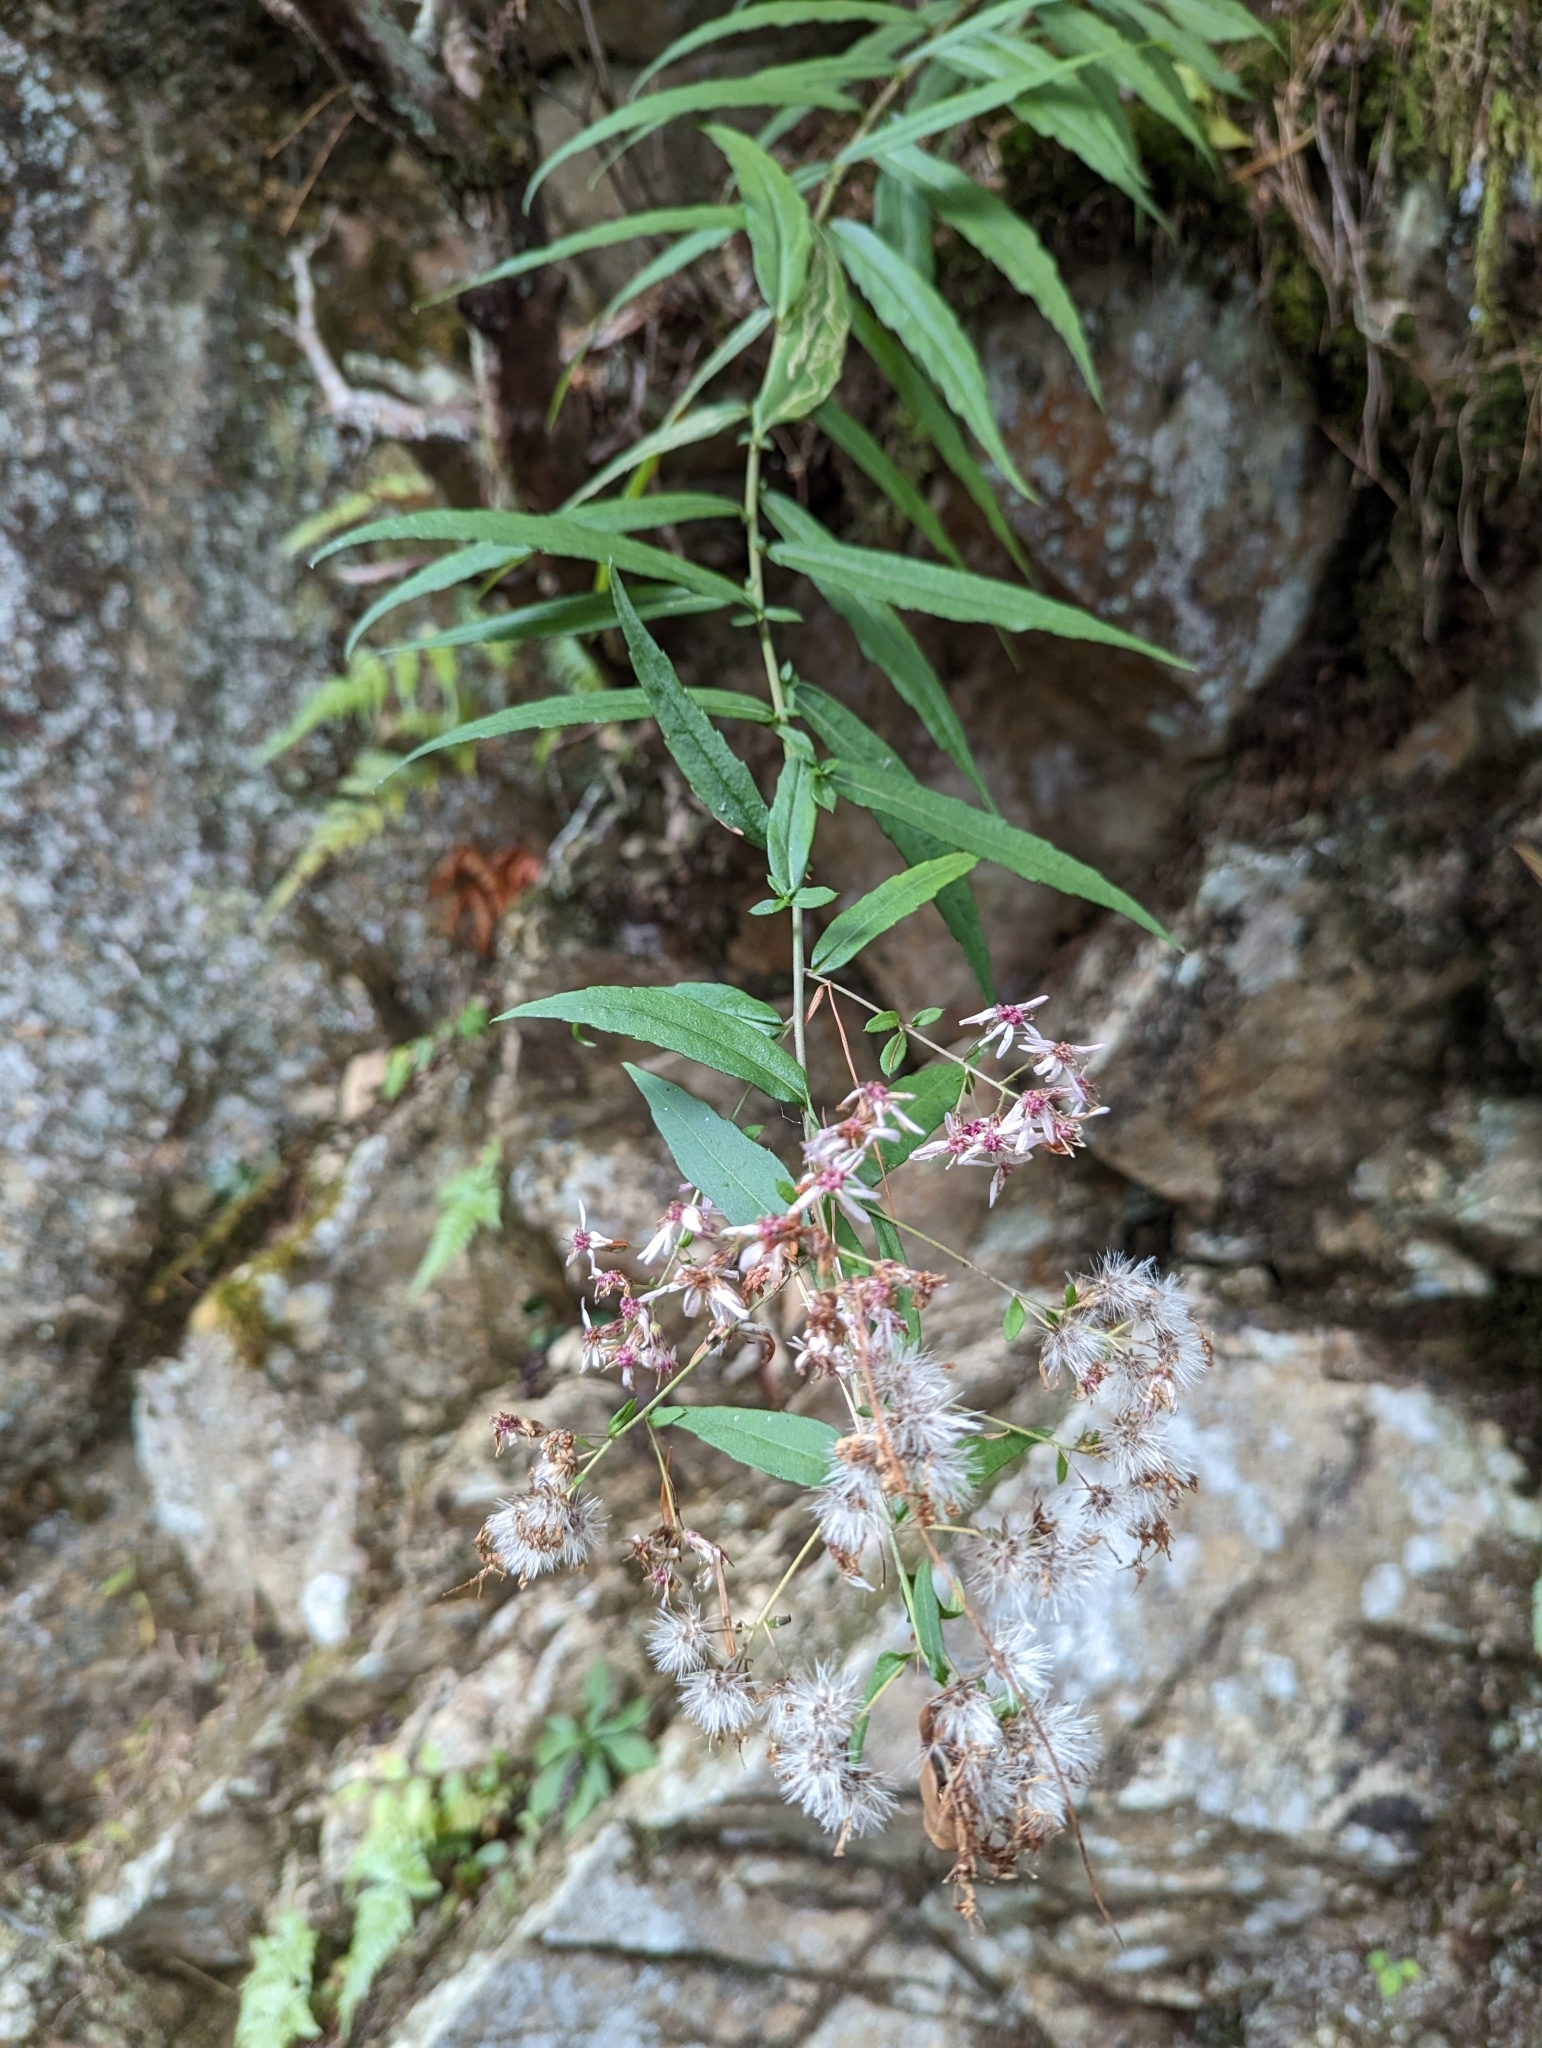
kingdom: Plantae
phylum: Tracheophyta
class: Magnoliopsida
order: Asterales
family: Asteraceae
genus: Aster
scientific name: Aster taiwanensis
